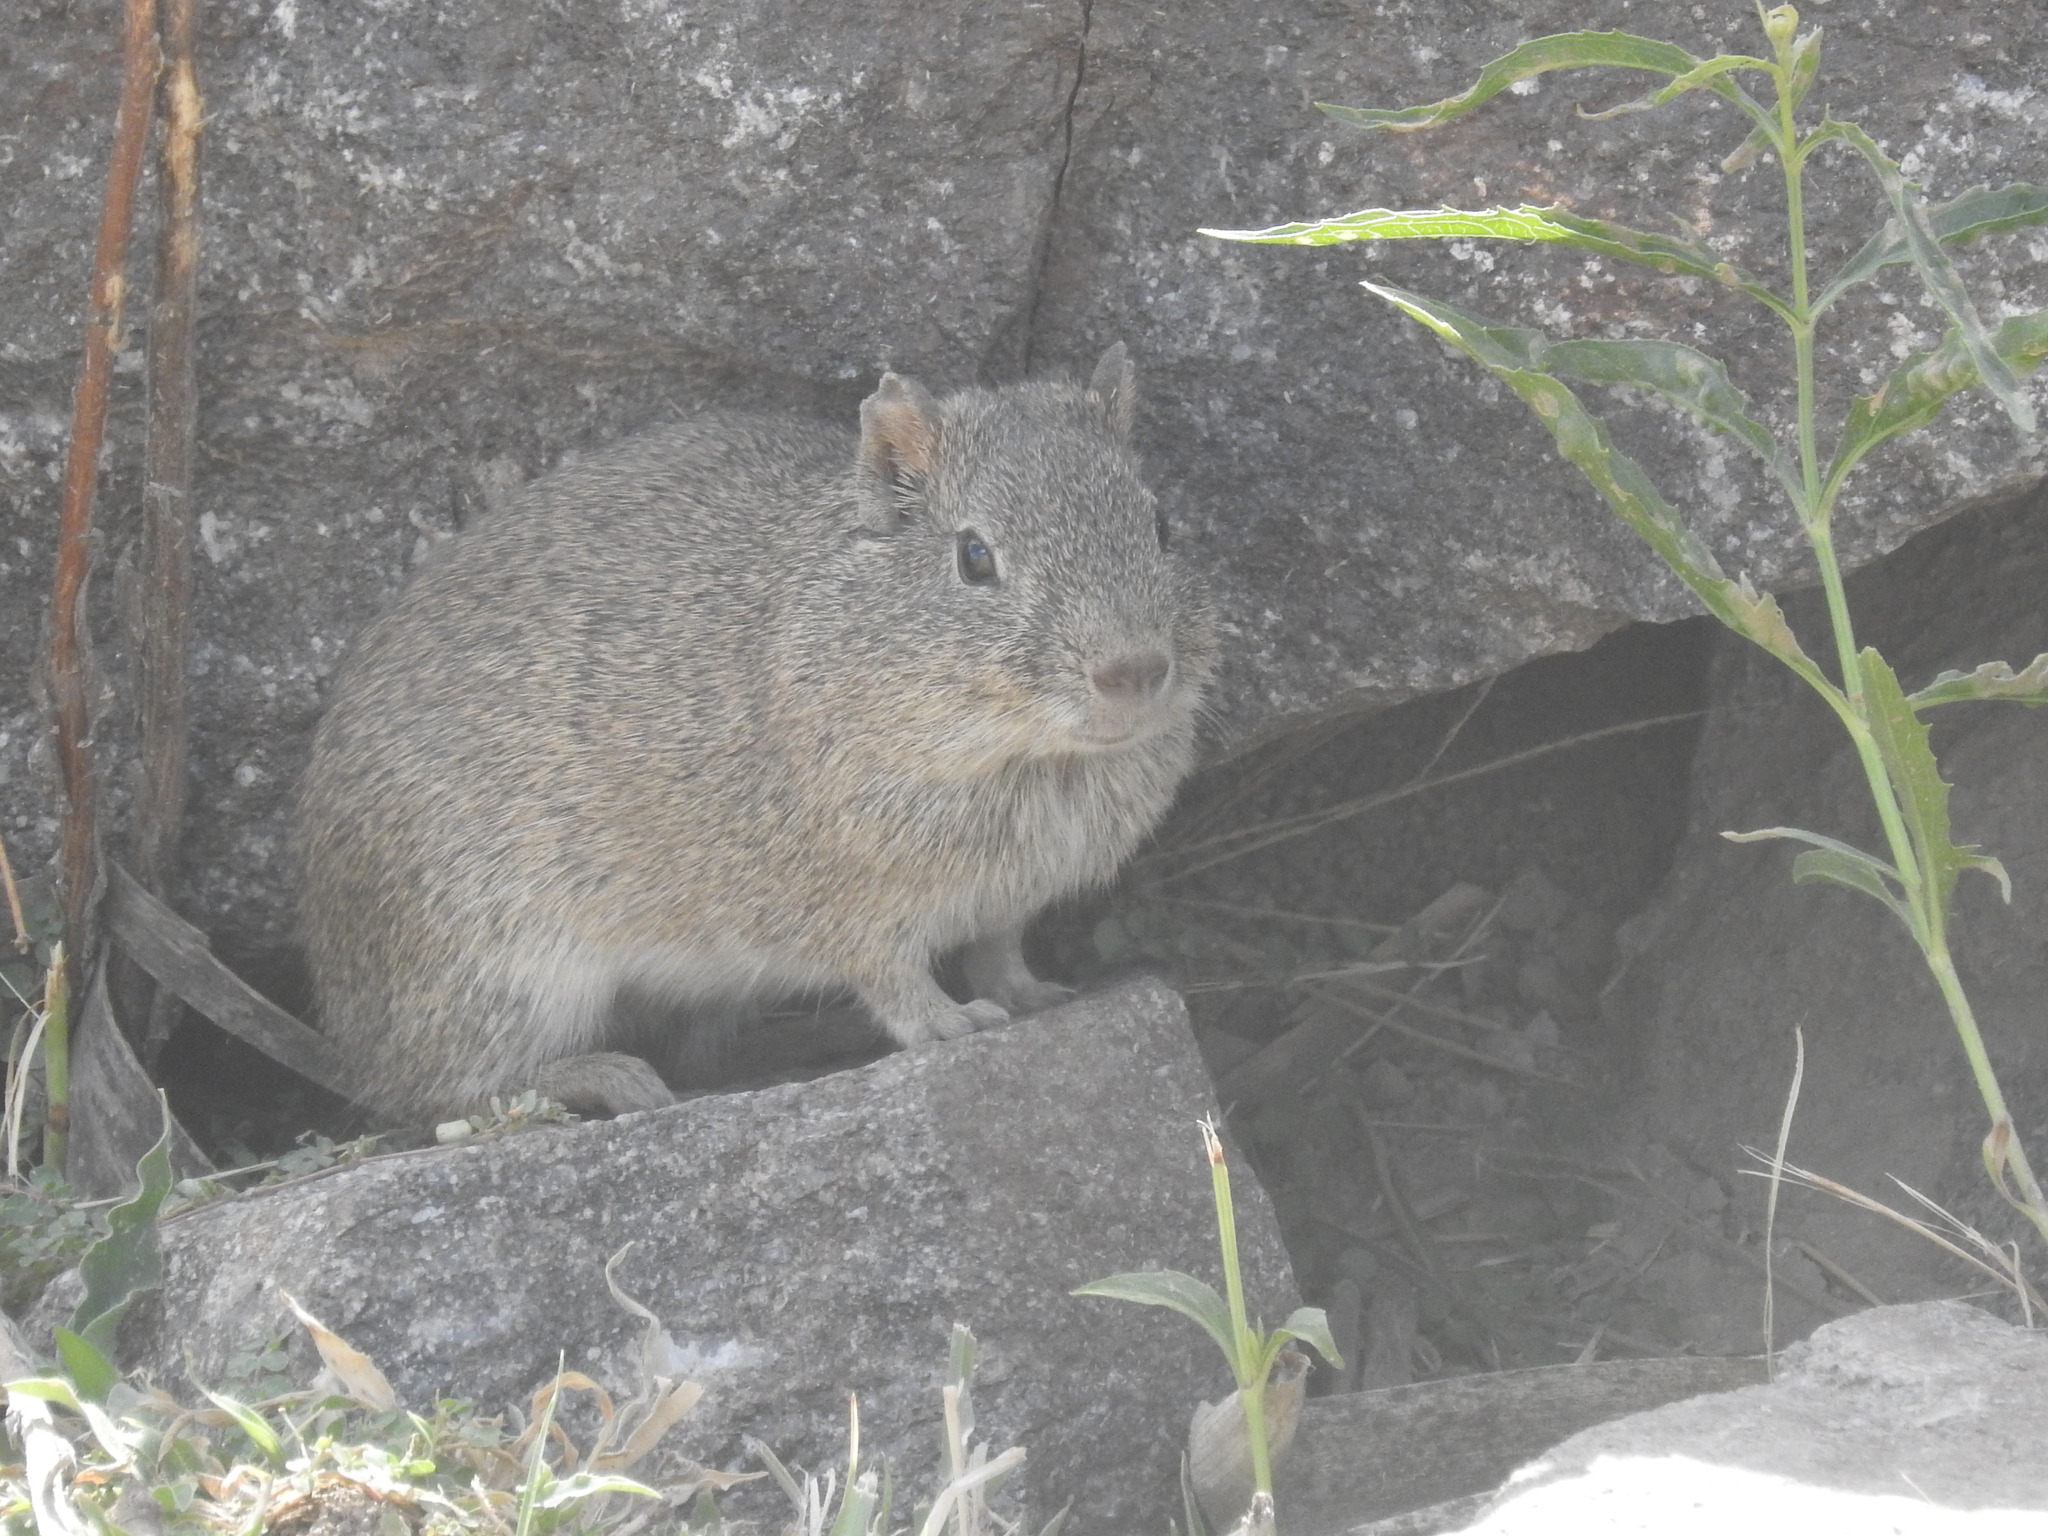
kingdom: Animalia
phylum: Chordata
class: Mammalia
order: Rodentia
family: Caviidae
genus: Cavia
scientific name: Cavia aperea
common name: Brazilian guinea pig
